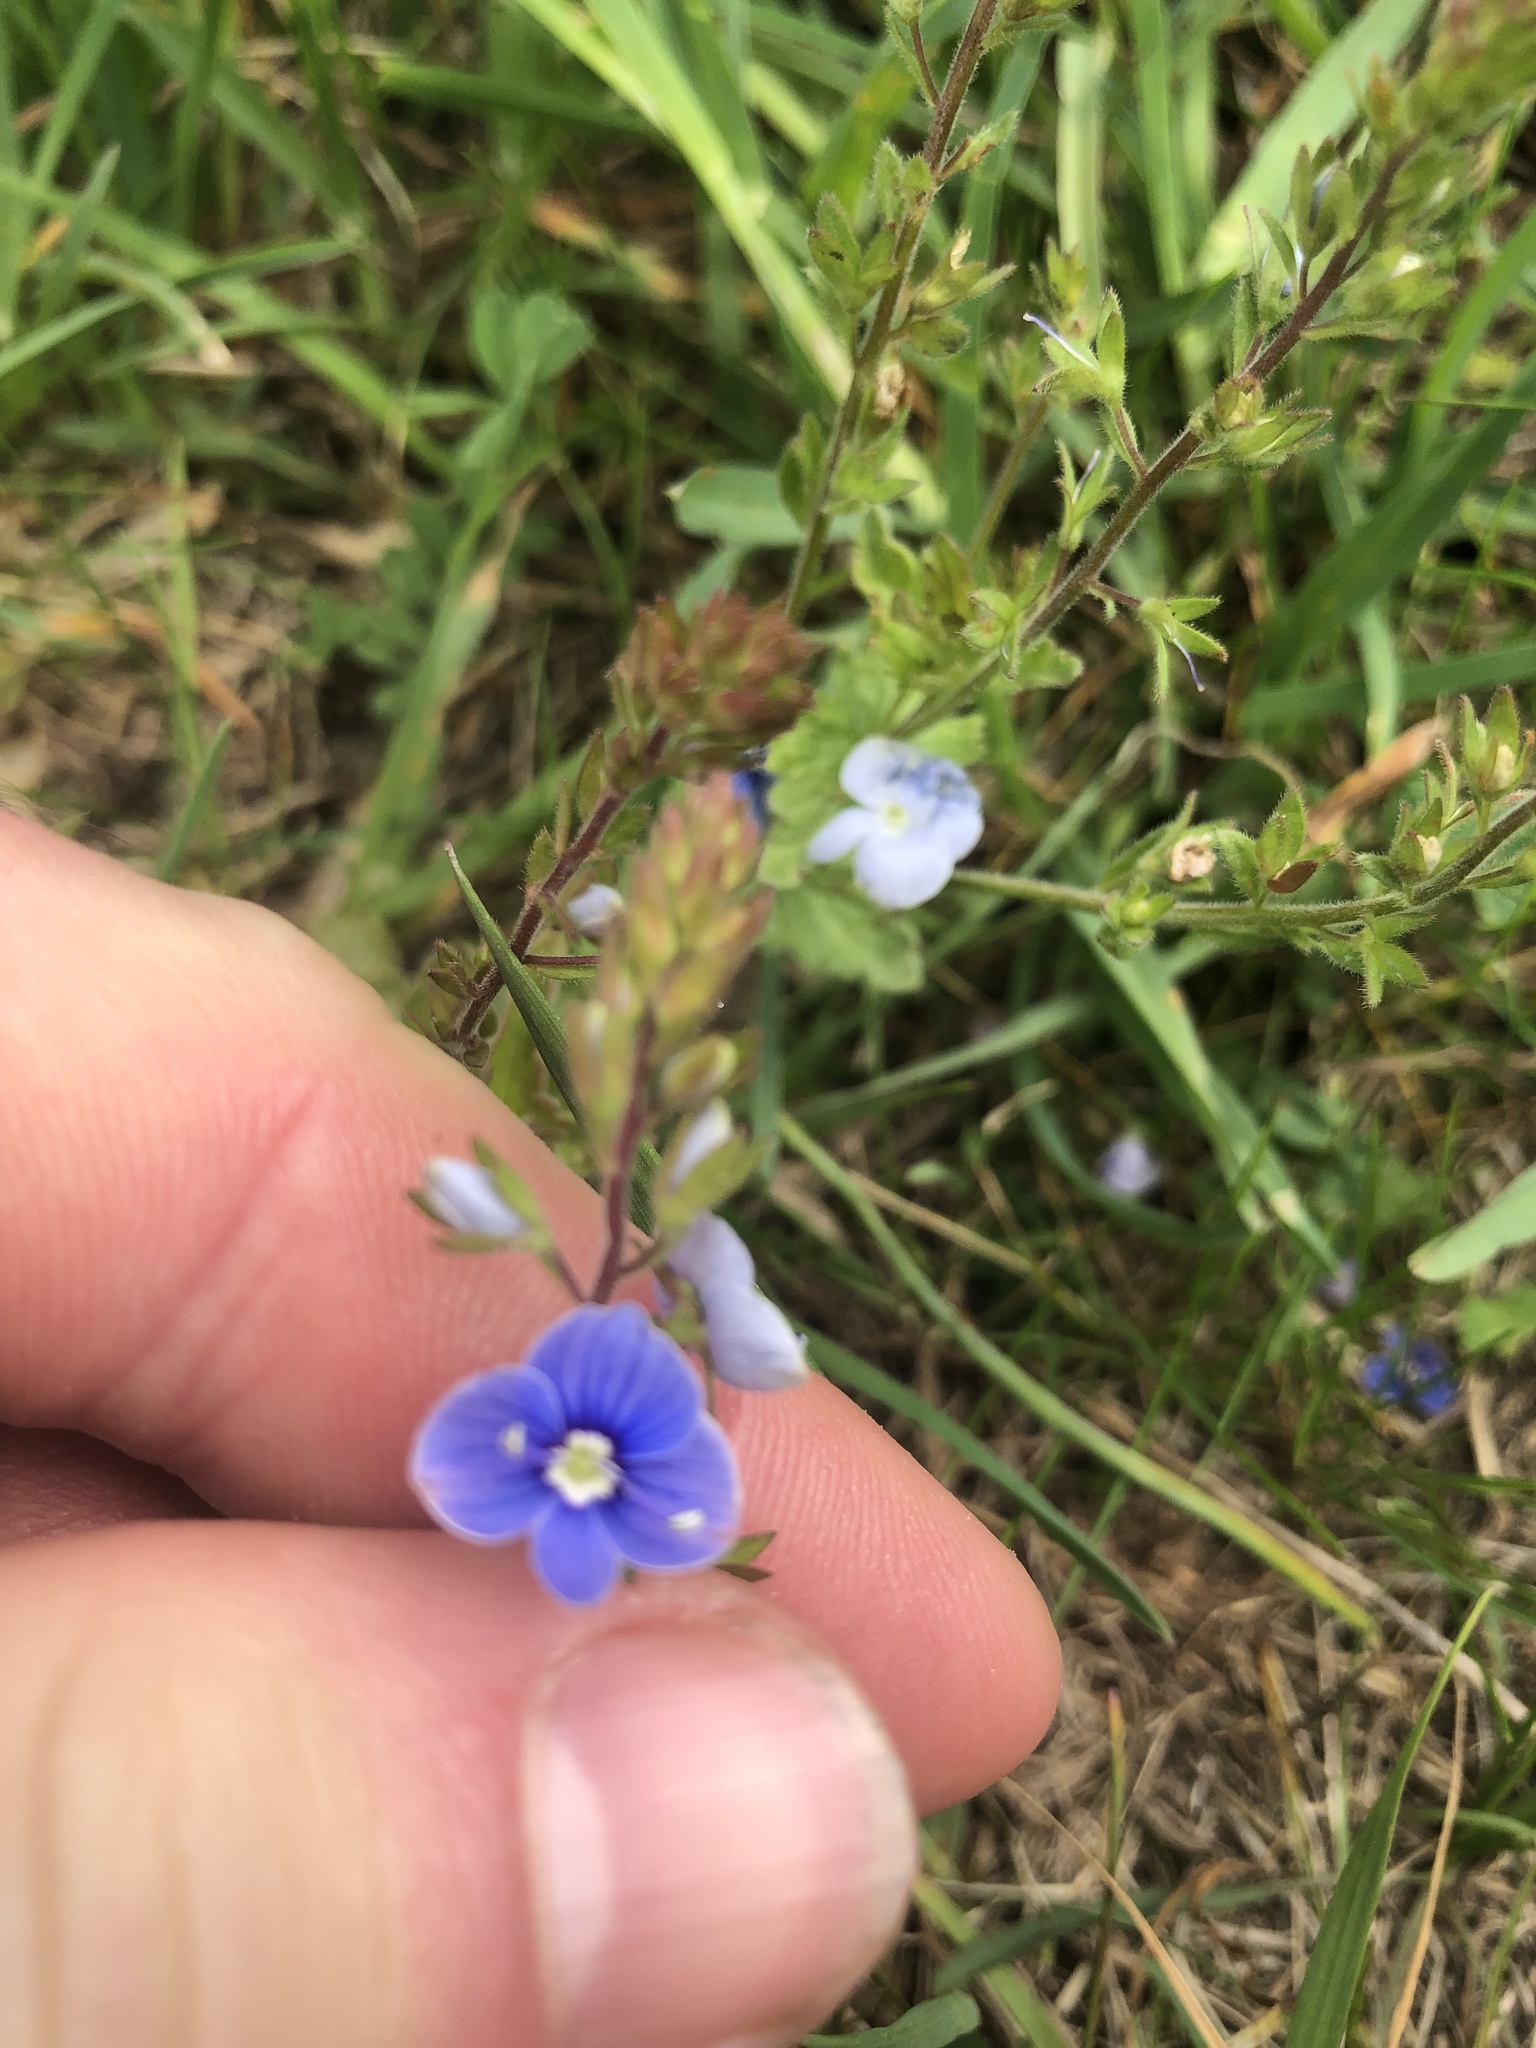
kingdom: Plantae
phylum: Tracheophyta
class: Magnoliopsida
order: Lamiales
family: Plantaginaceae
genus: Veronica
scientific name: Veronica chamaedrys
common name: Germander speedwell
